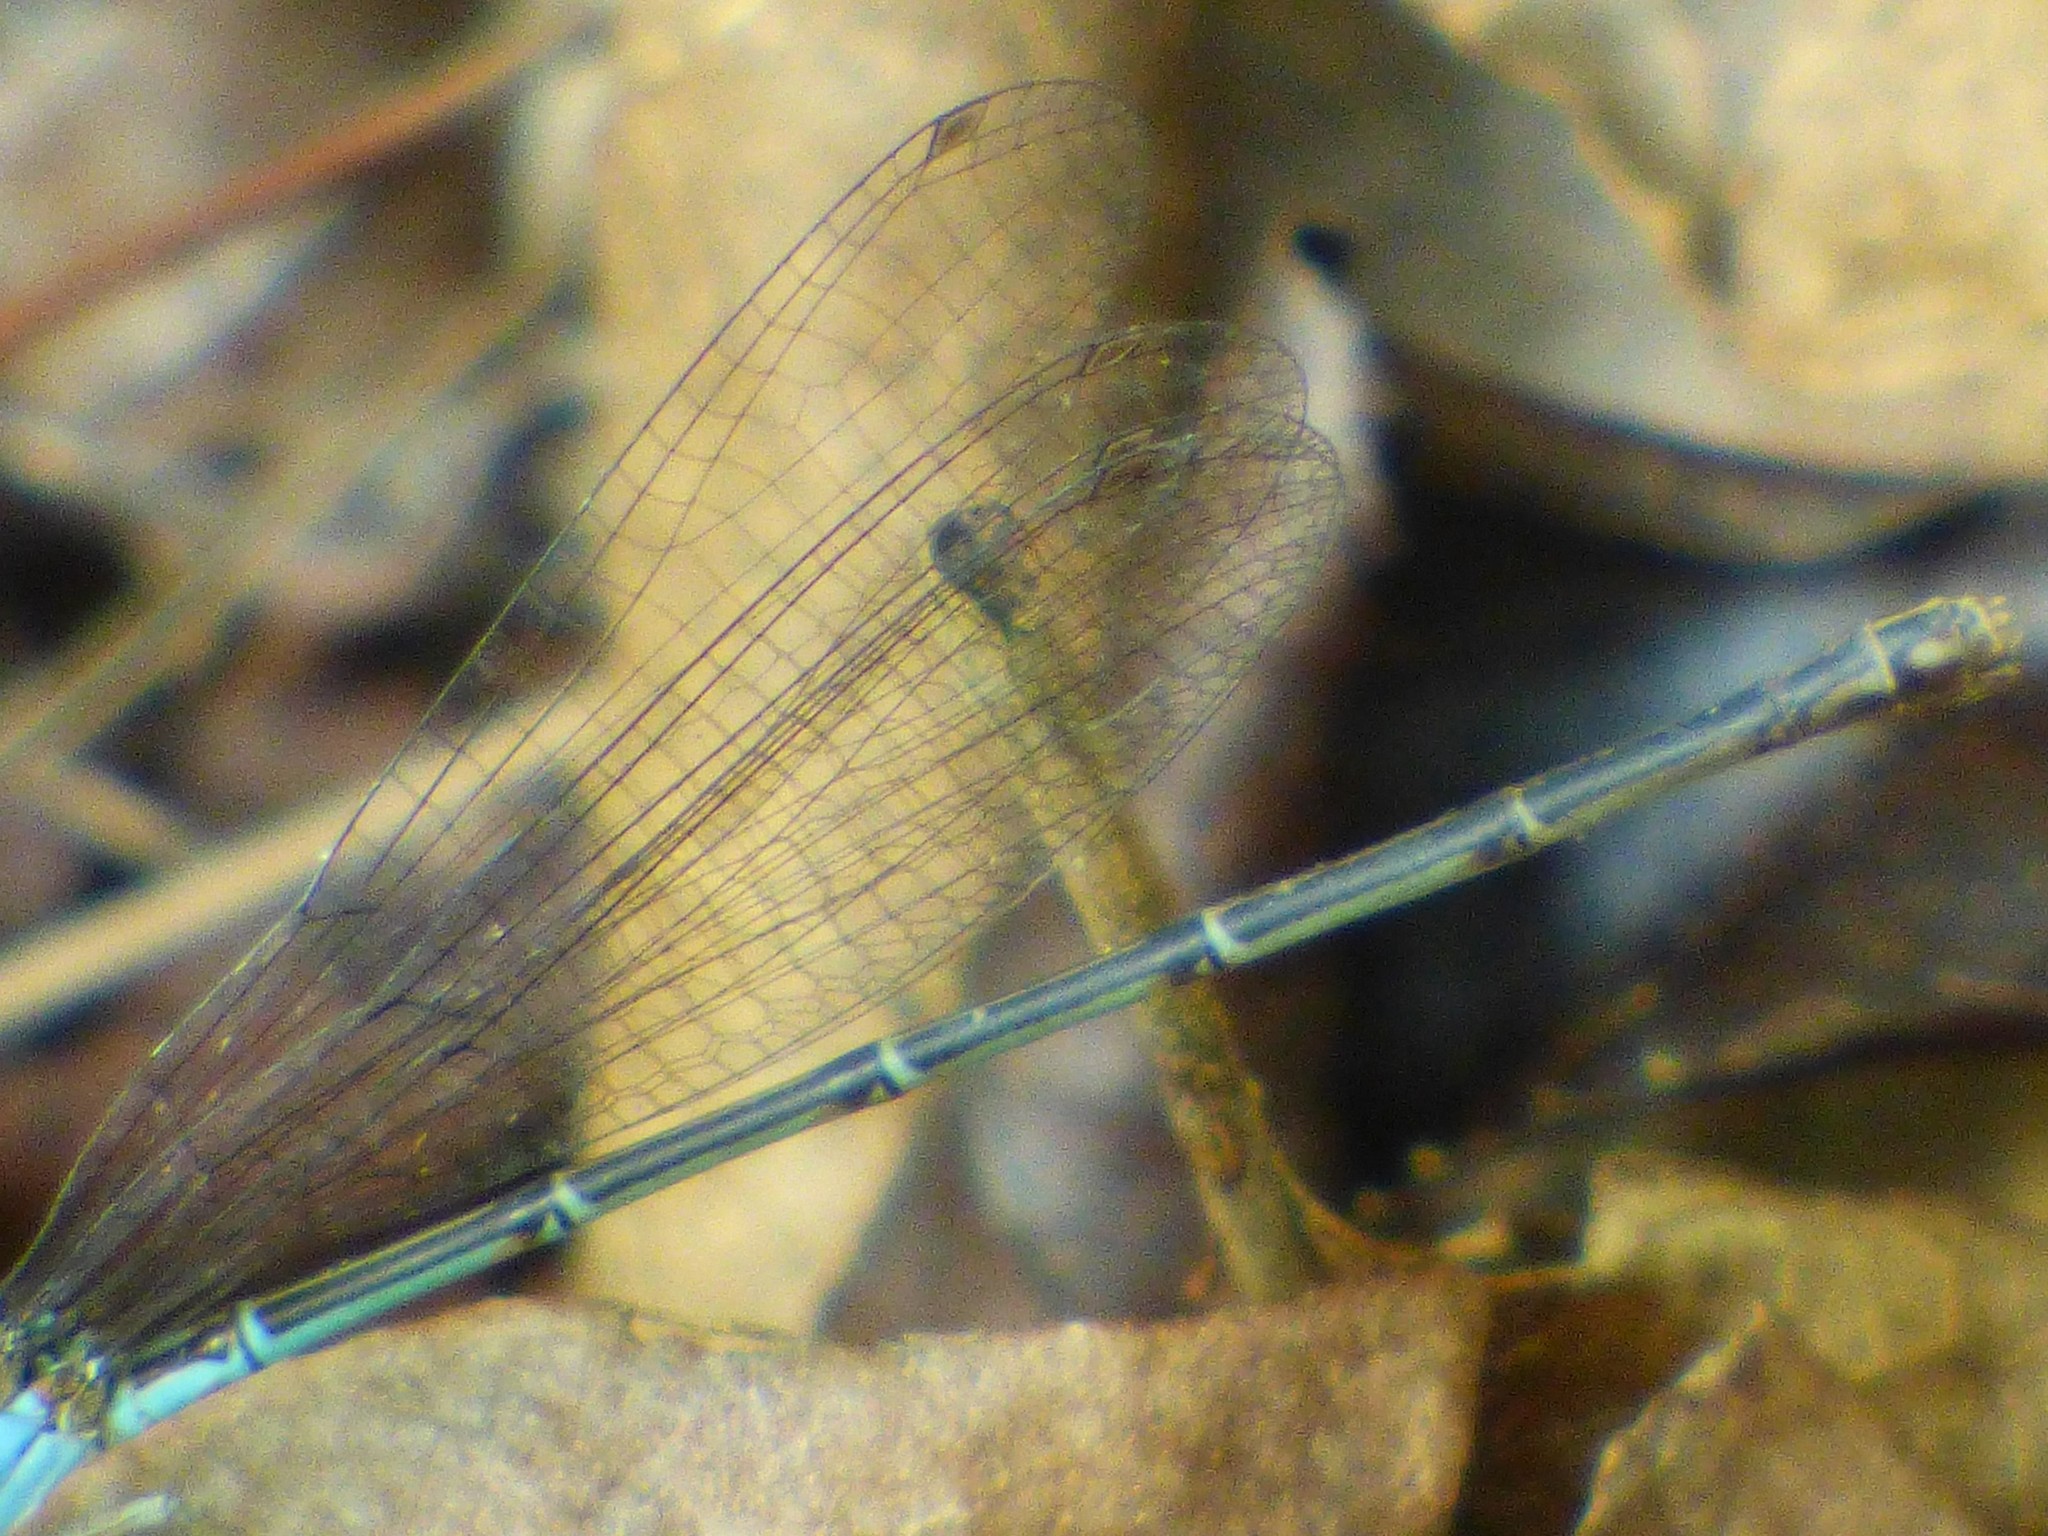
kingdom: Animalia
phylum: Arthropoda
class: Insecta
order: Odonata
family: Coenagrionidae
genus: Argia
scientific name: Argia apicalis
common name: Blue-fronted dancer
